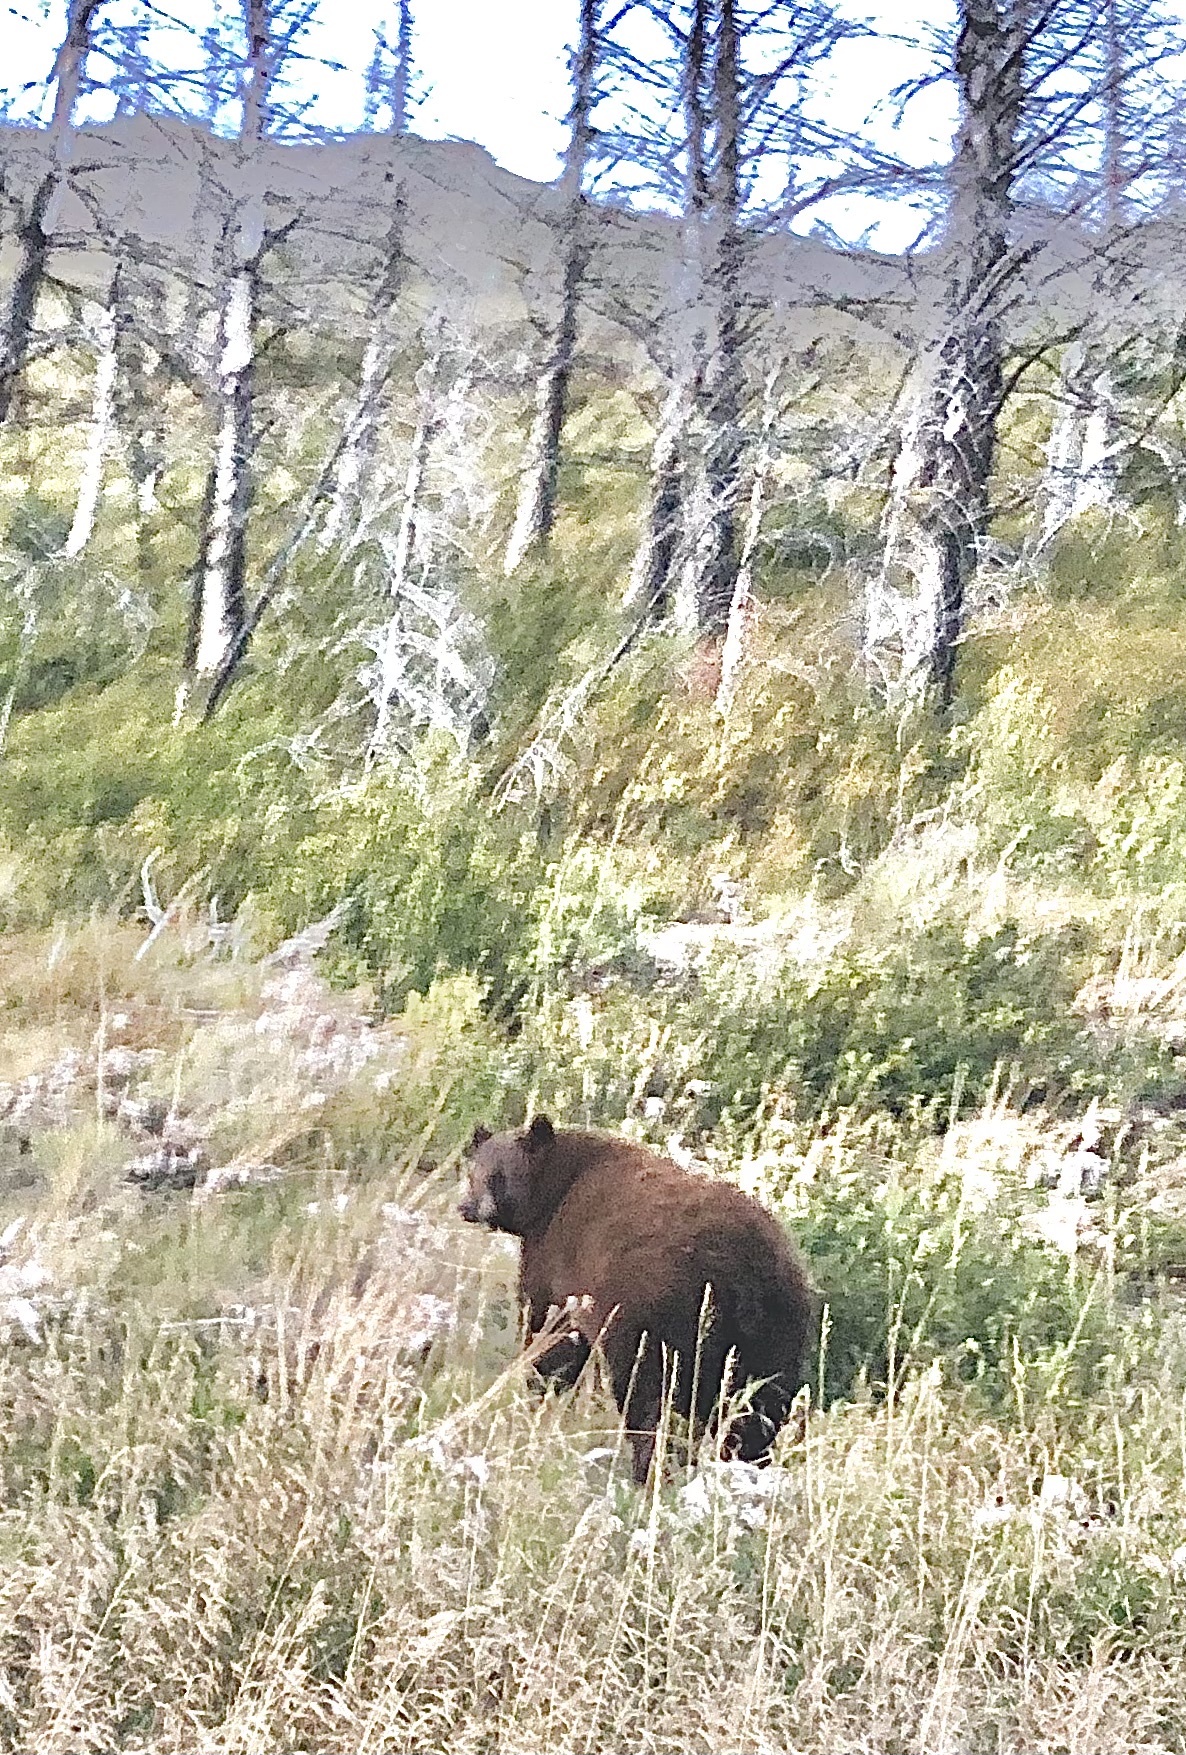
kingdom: Animalia
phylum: Chordata
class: Mammalia
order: Carnivora
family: Ursidae
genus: Ursus
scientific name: Ursus americanus
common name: American black bear
